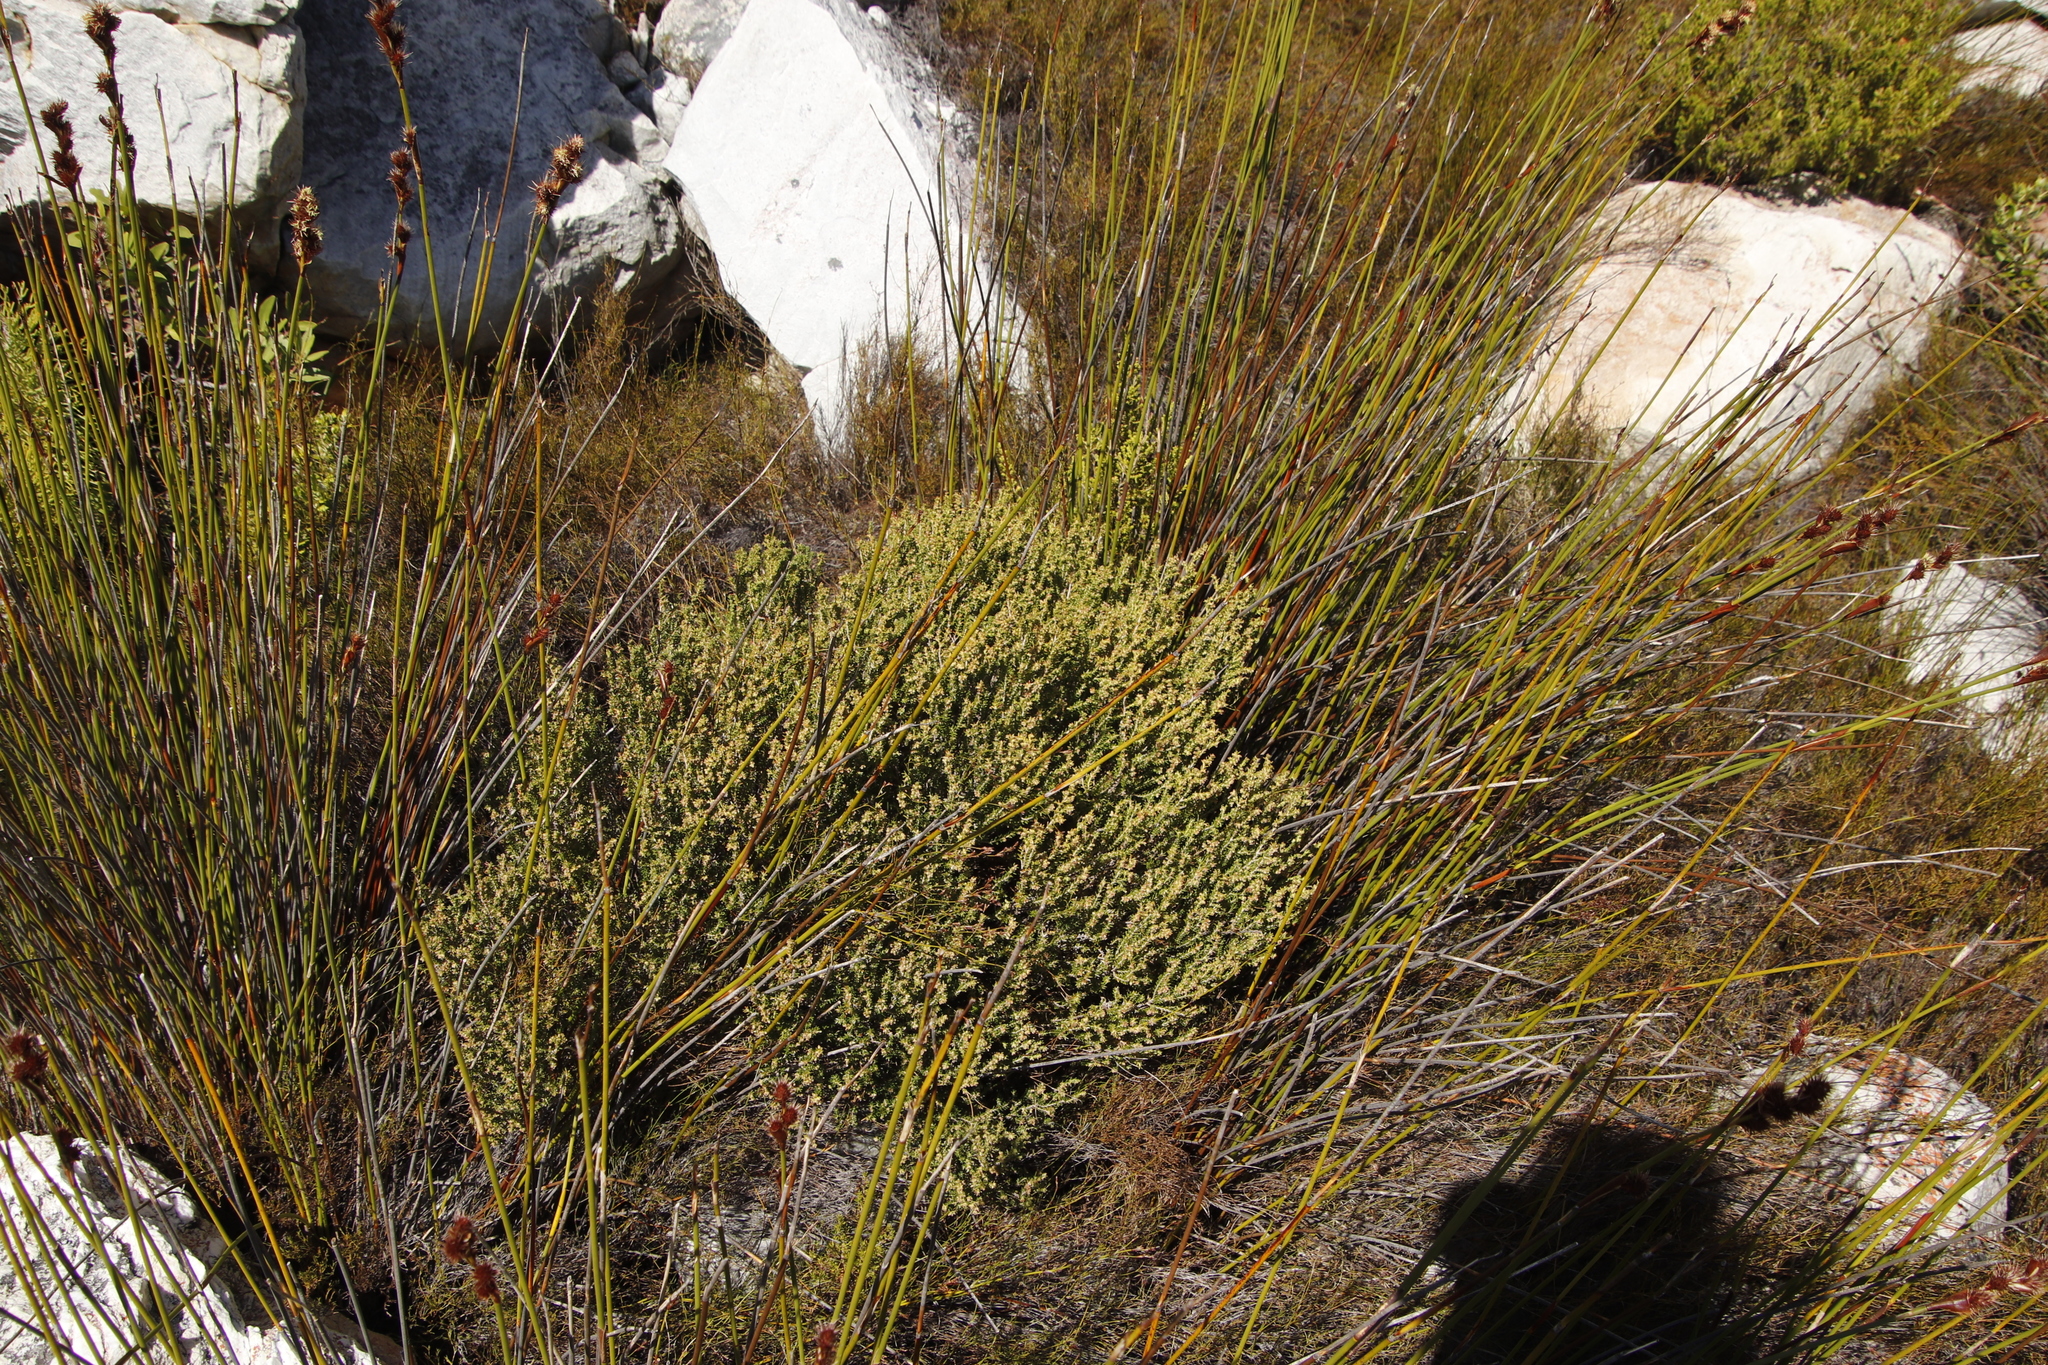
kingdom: Plantae
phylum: Tracheophyta
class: Magnoliopsida
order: Ericales
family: Ericaceae
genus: Erica
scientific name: Erica serrata
